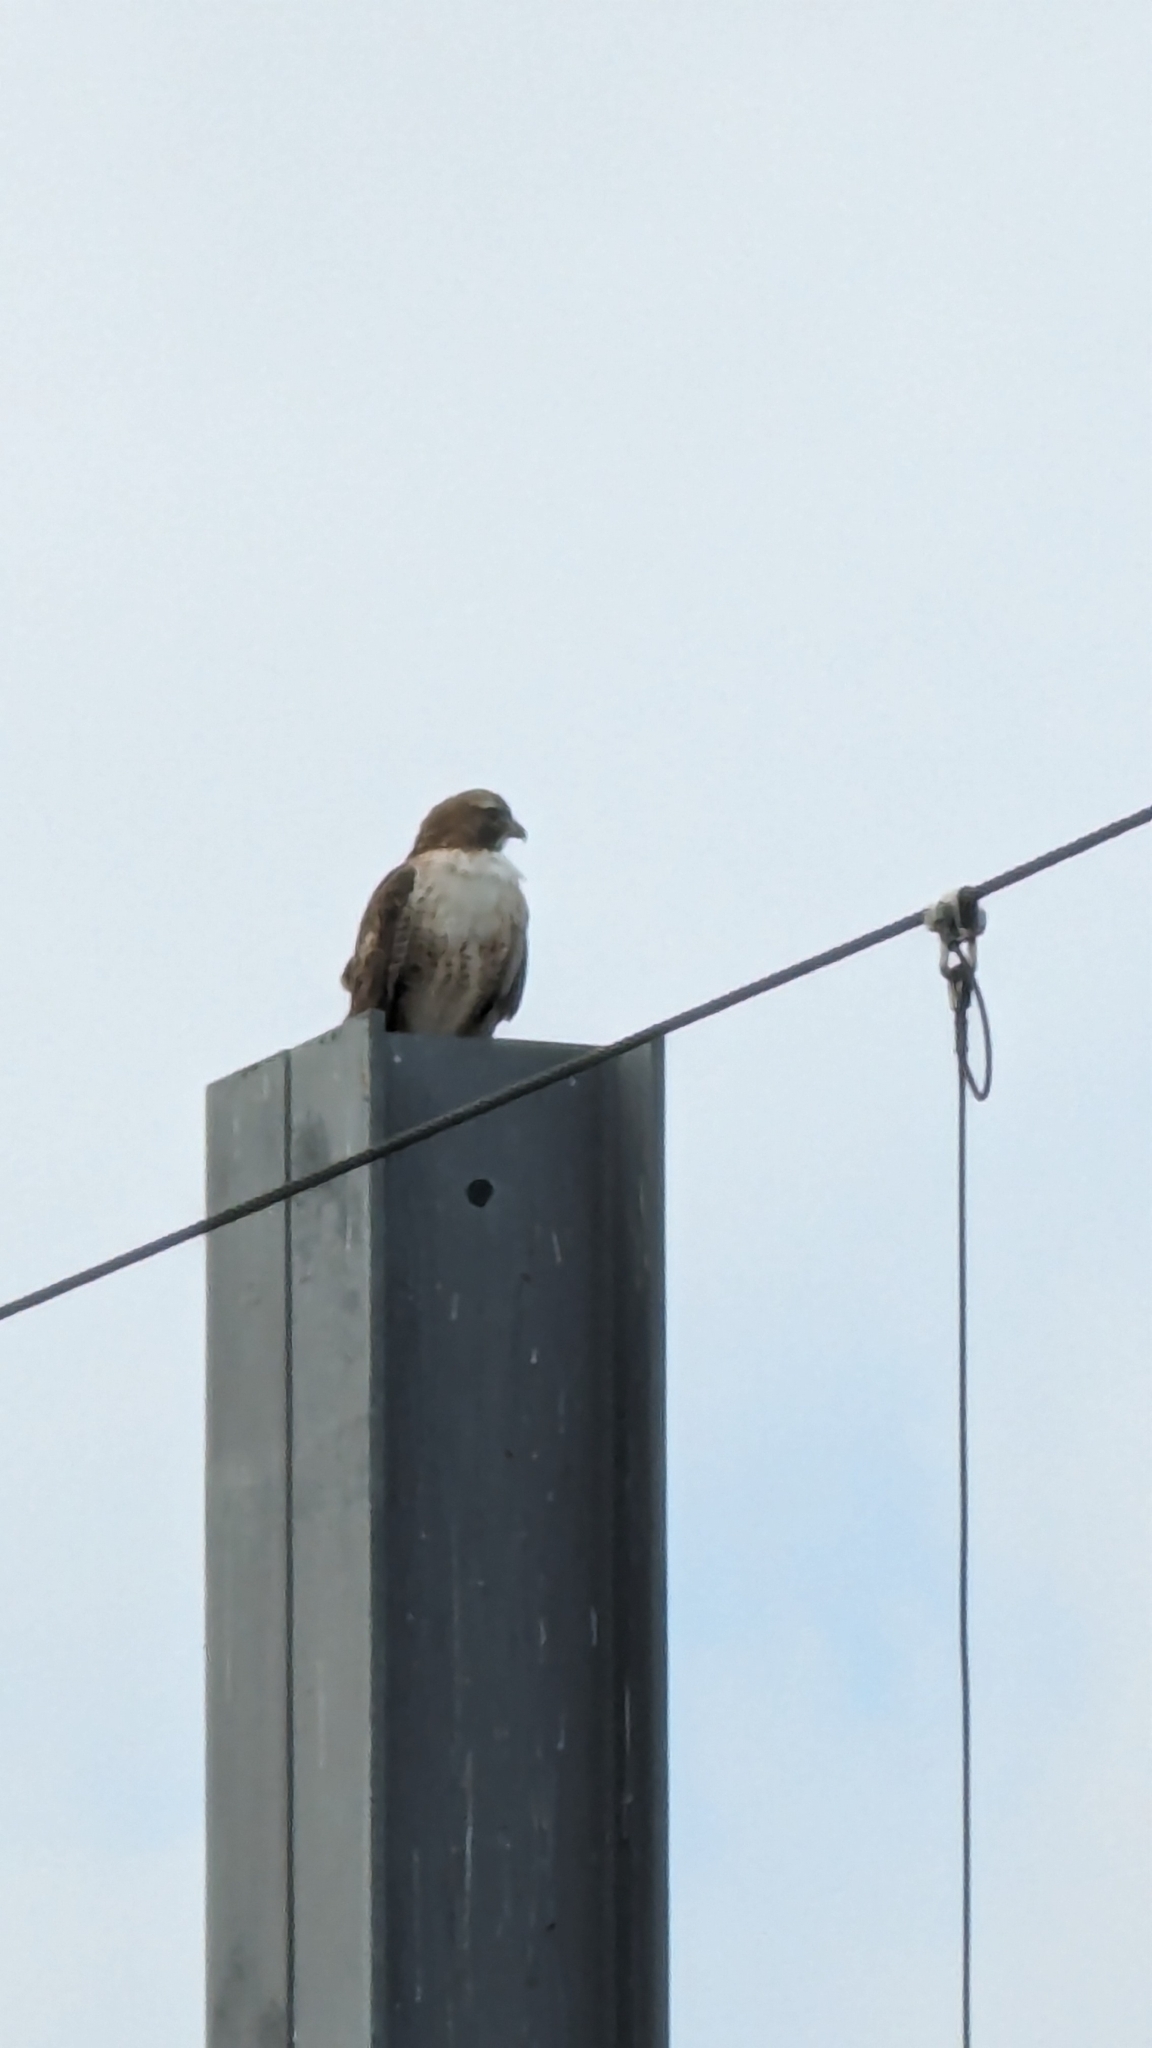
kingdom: Animalia
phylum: Chordata
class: Aves
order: Accipitriformes
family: Accipitridae
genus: Buteo
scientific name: Buteo jamaicensis
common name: Red-tailed hawk
